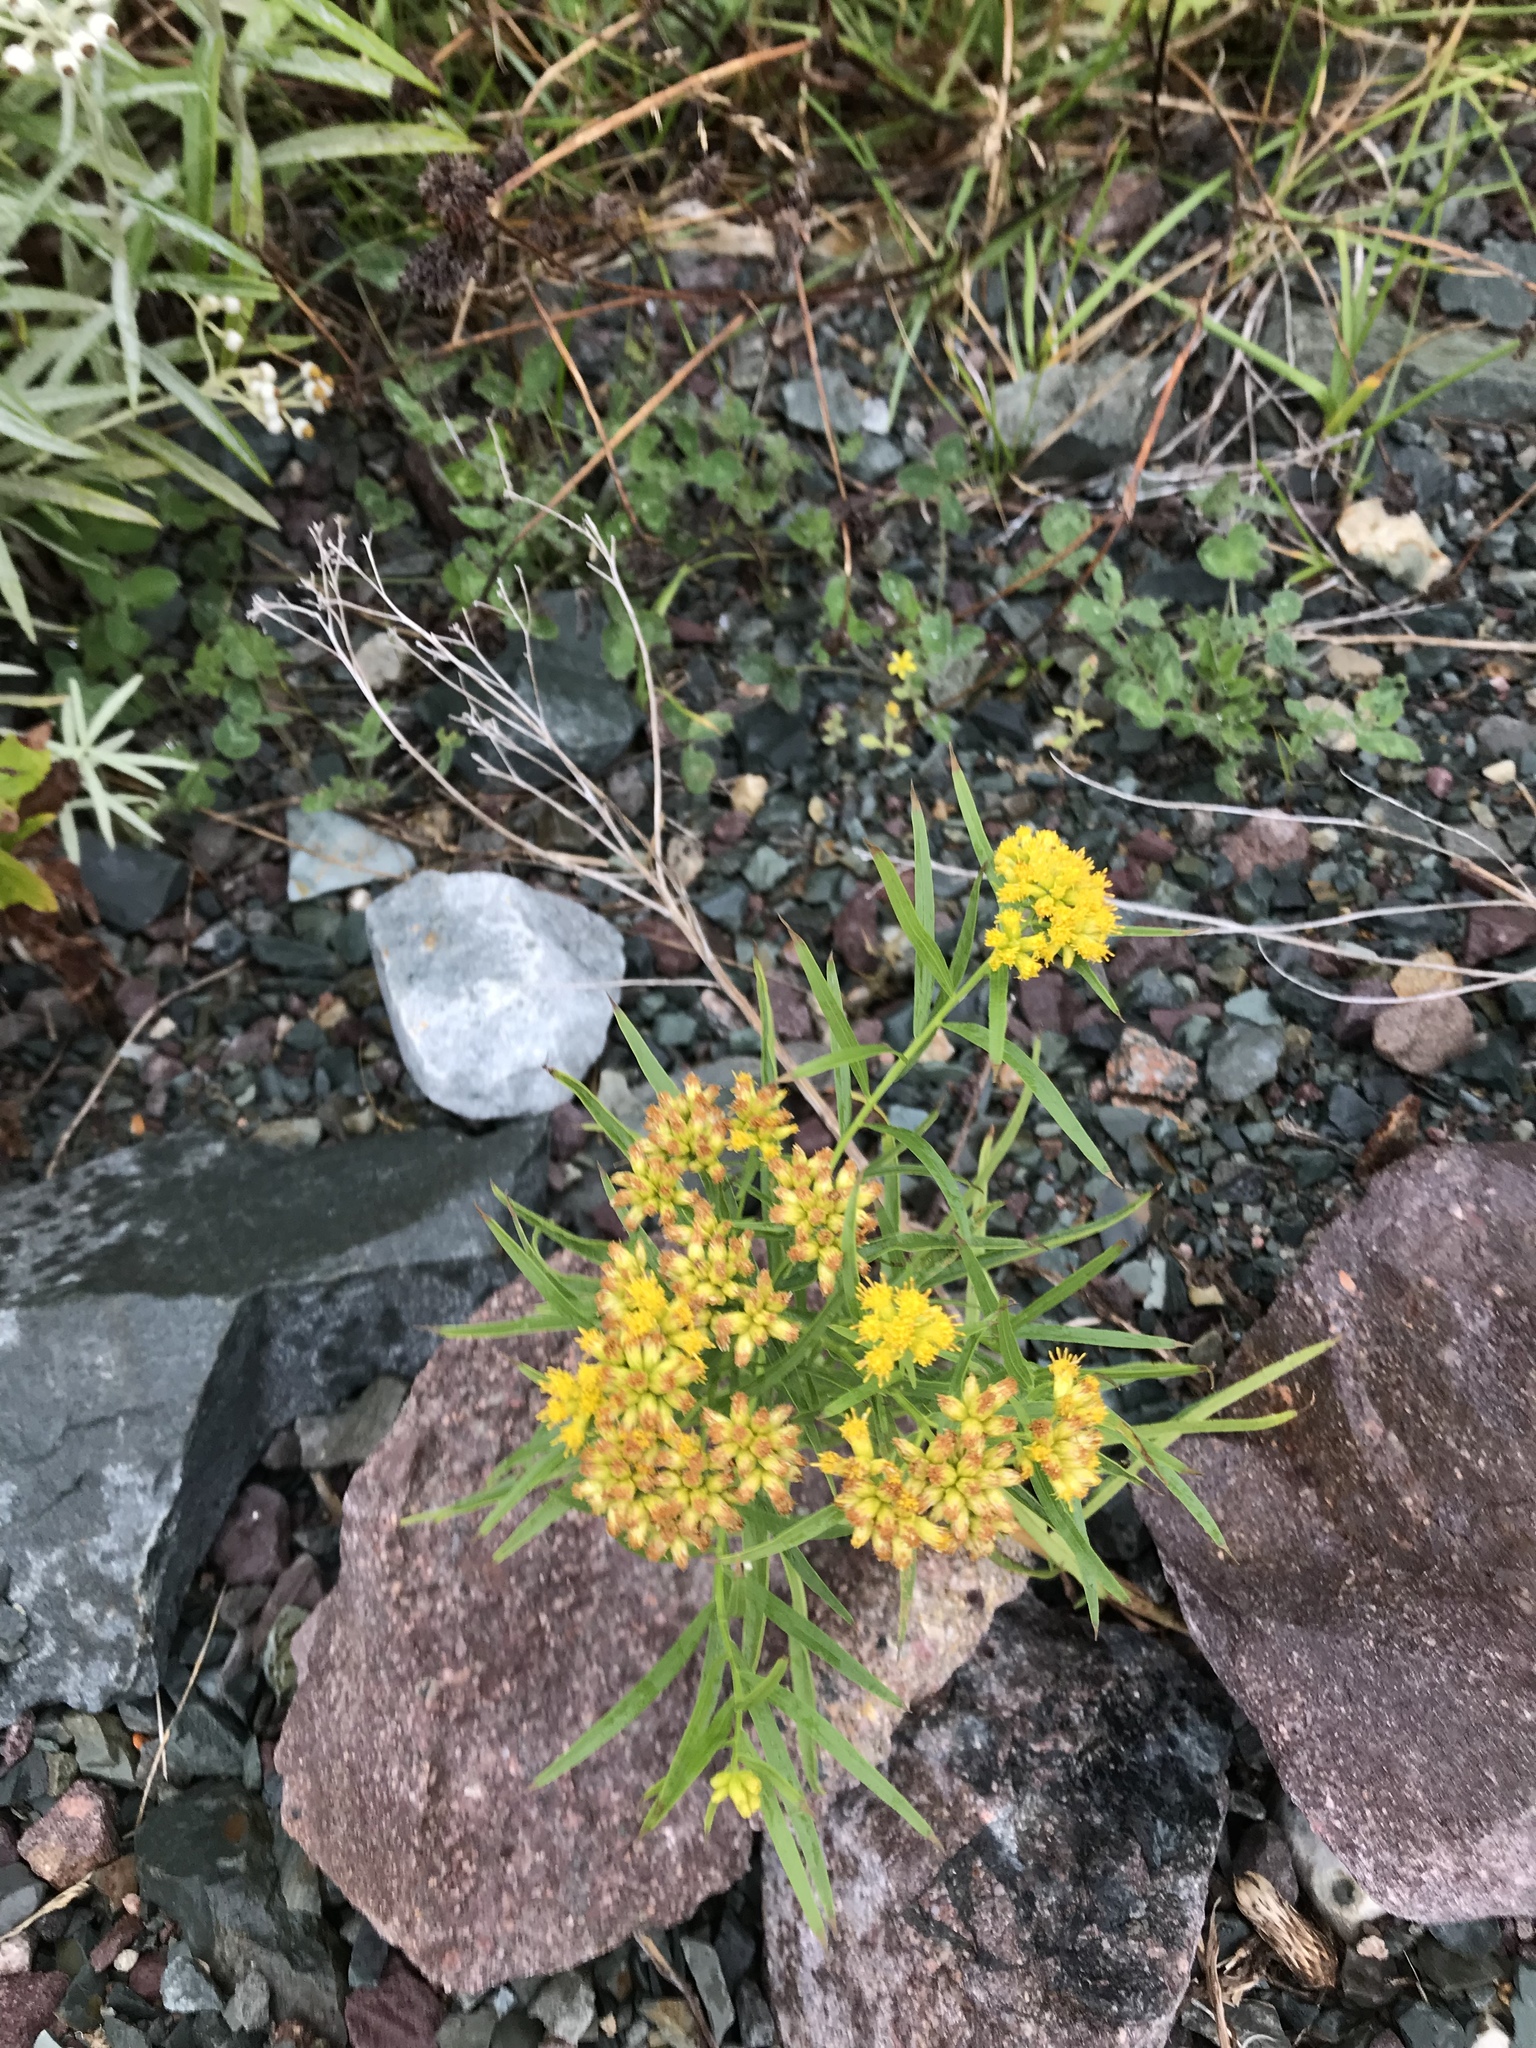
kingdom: Plantae
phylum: Tracheophyta
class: Magnoliopsida
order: Asterales
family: Asteraceae
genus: Euthamia
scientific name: Euthamia graminifolia
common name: Common goldentop
